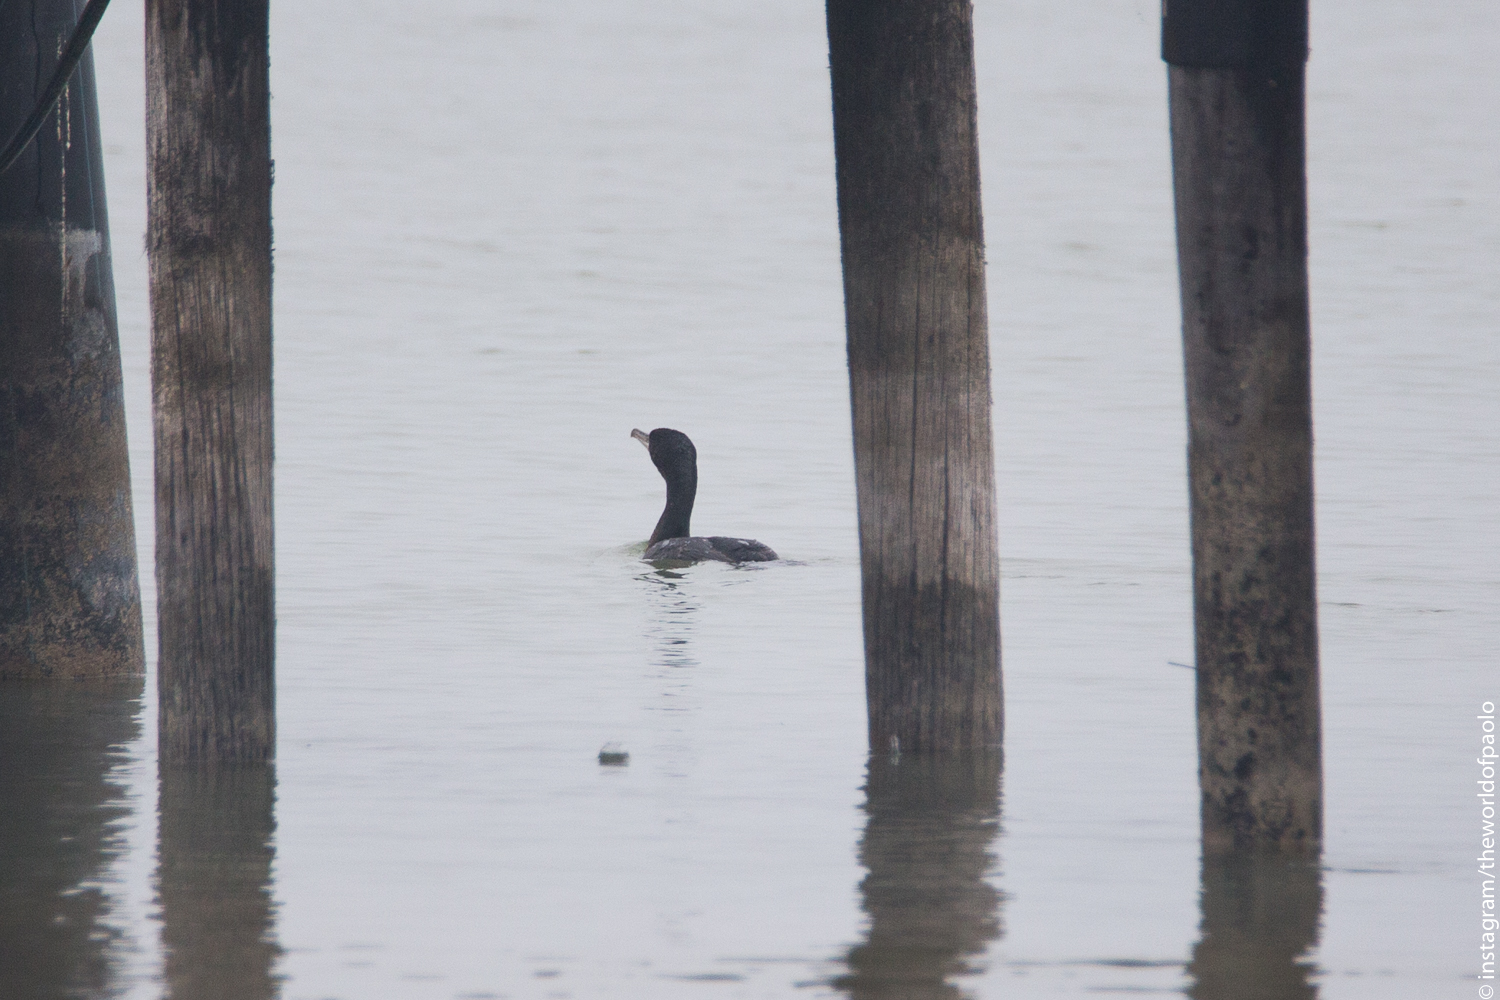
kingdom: Animalia
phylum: Chordata
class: Aves
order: Suliformes
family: Phalacrocoracidae
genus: Phalacrocorax
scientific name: Phalacrocorax carbo
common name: Great cormorant
